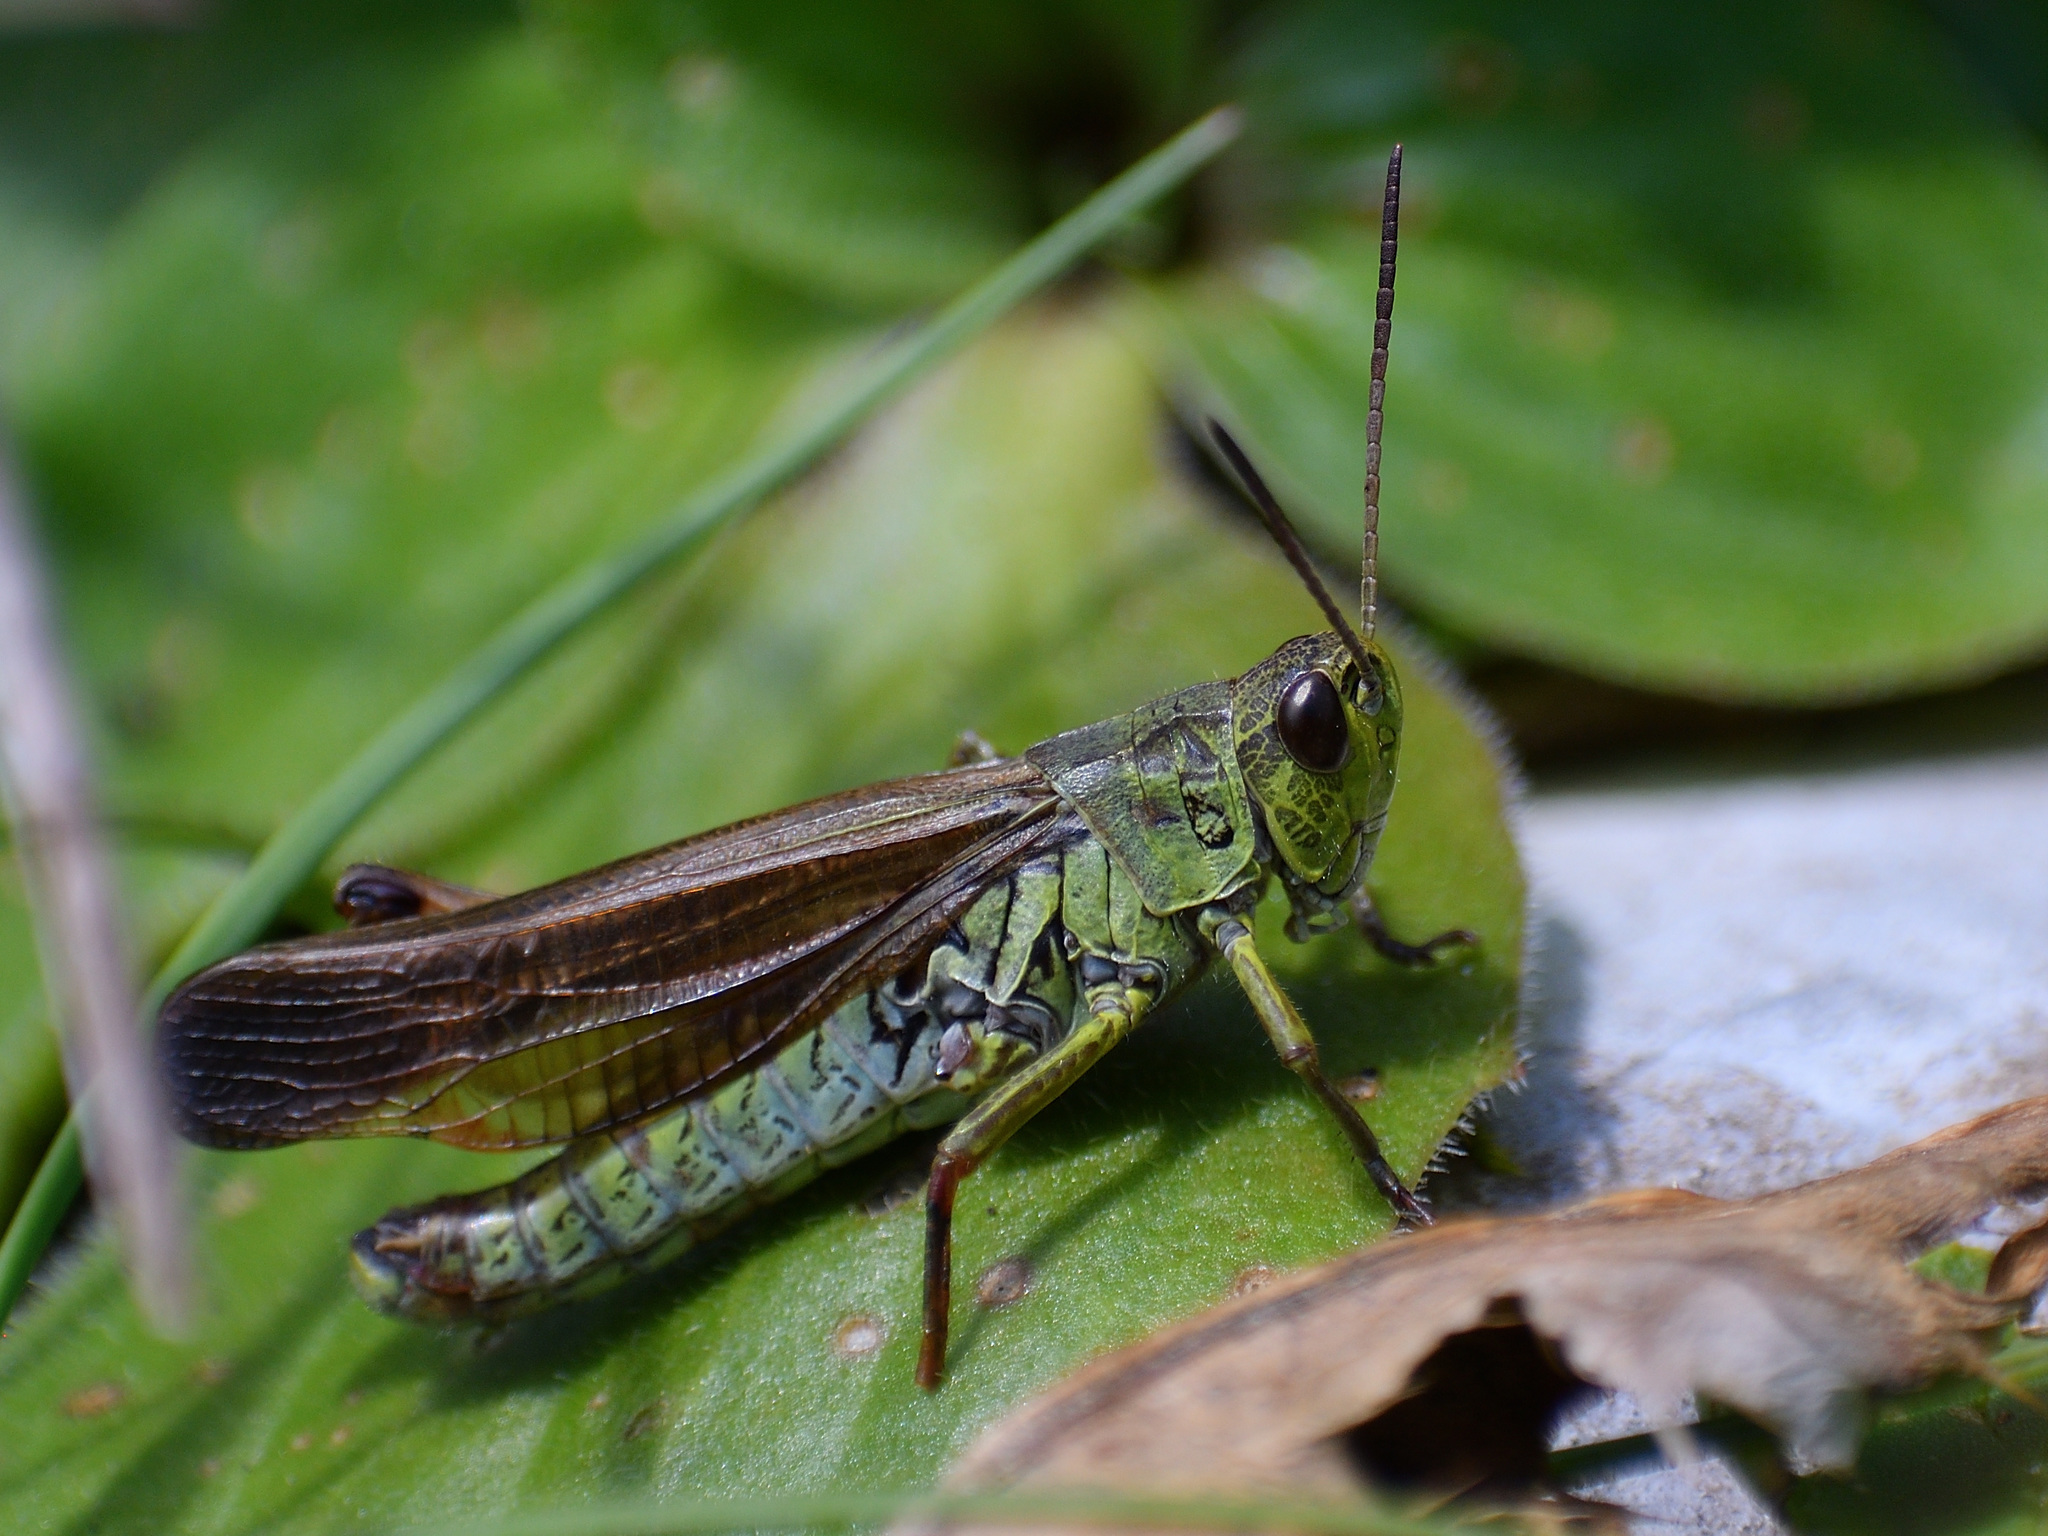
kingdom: Animalia
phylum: Arthropoda
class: Insecta
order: Orthoptera
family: Acrididae
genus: Stauroderus
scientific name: Stauroderus scalaris
